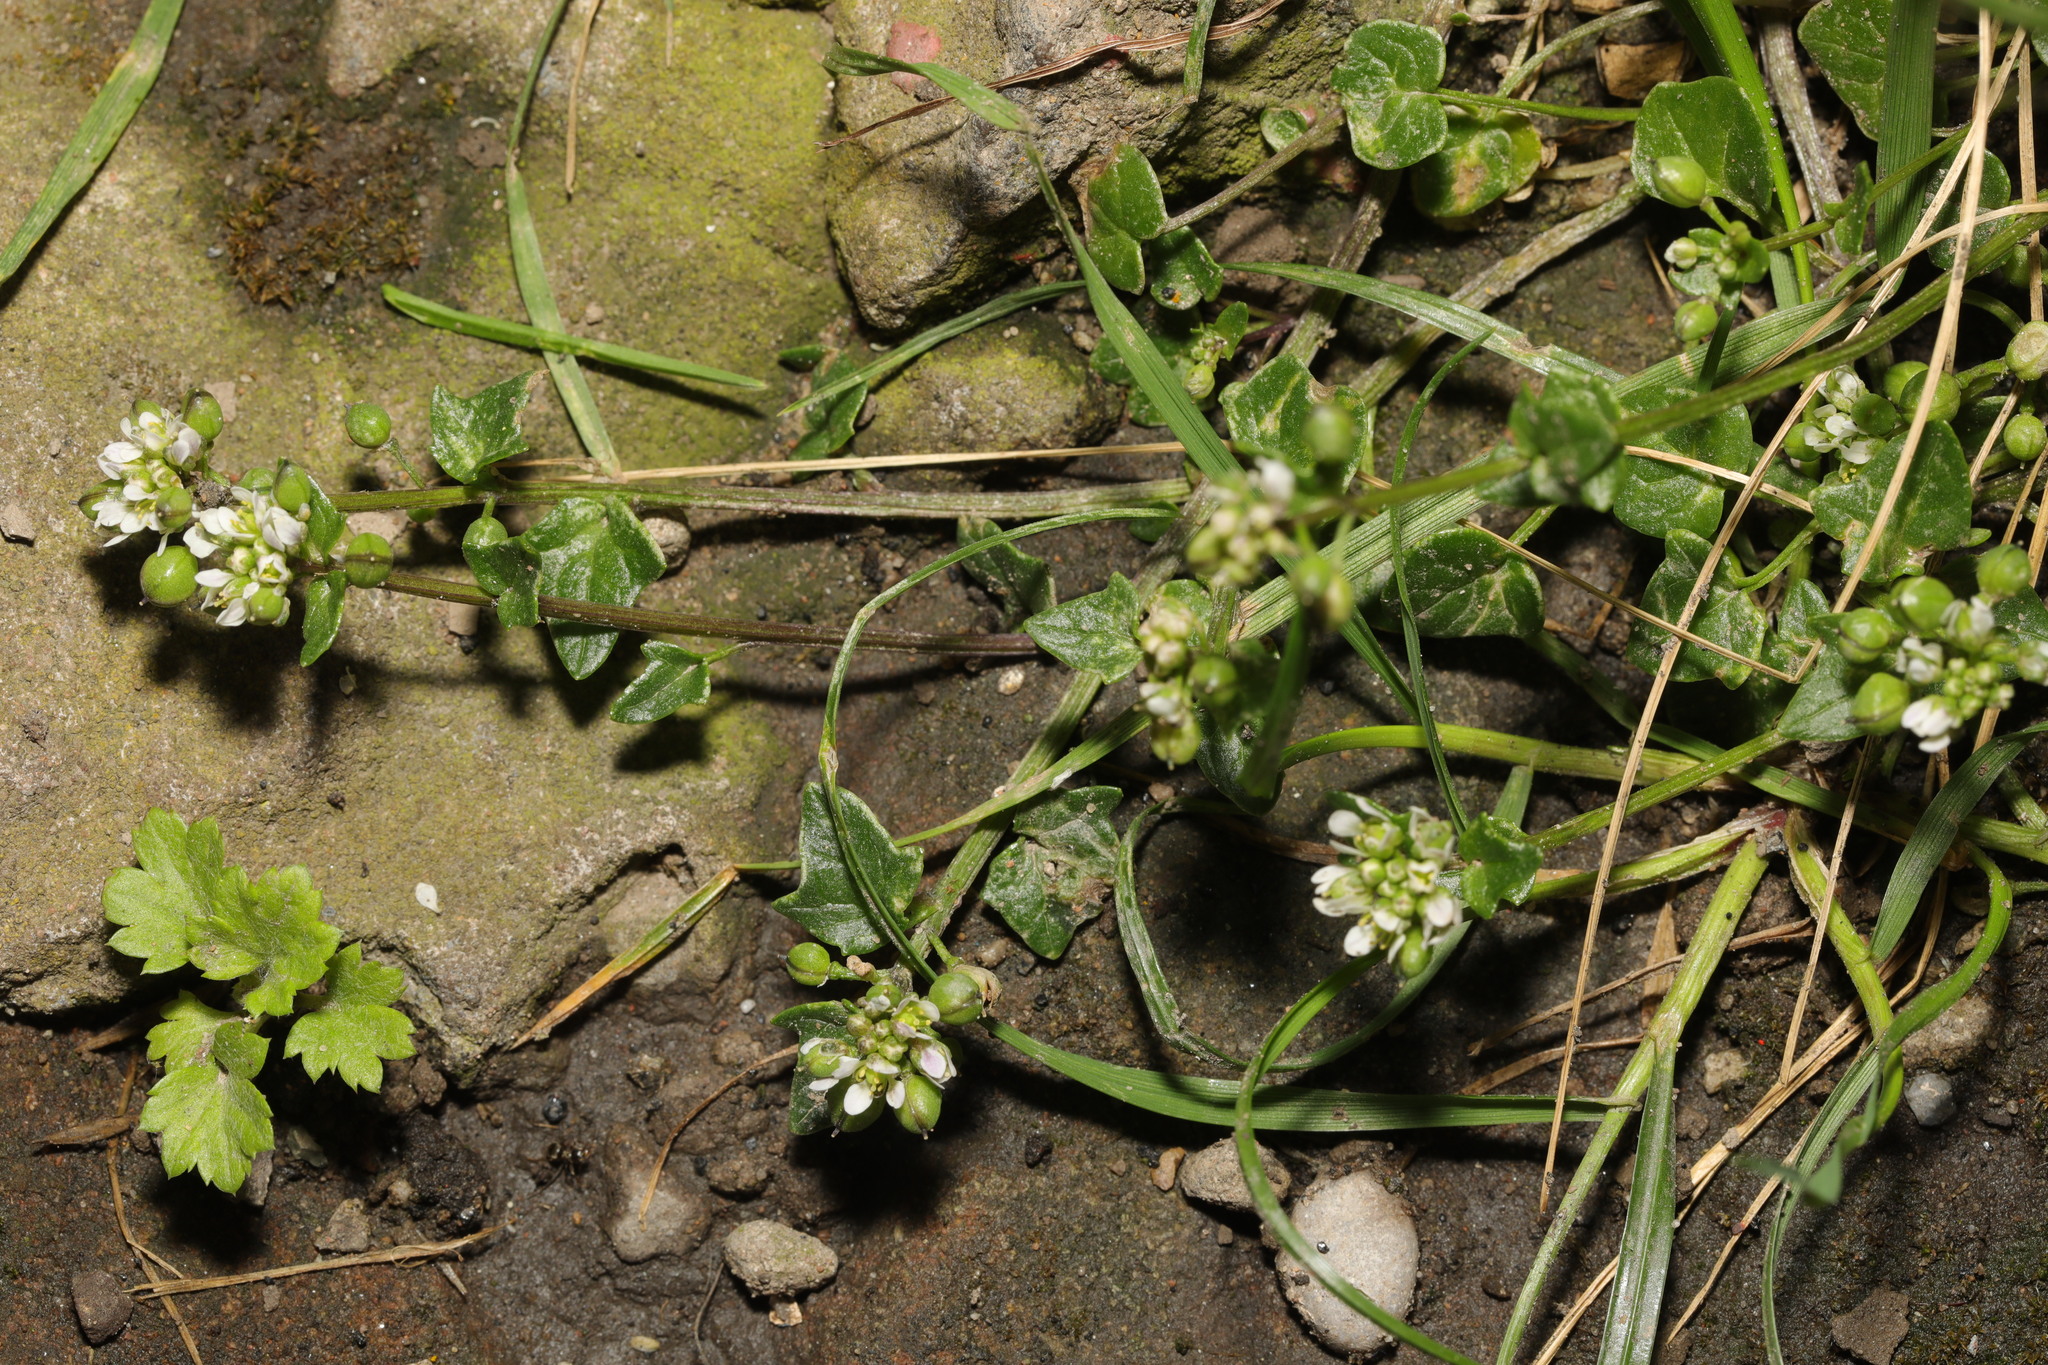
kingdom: Plantae
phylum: Tracheophyta
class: Magnoliopsida
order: Brassicales
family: Brassicaceae
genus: Cochlearia
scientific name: Cochlearia officinalis
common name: Scurvy-grass
